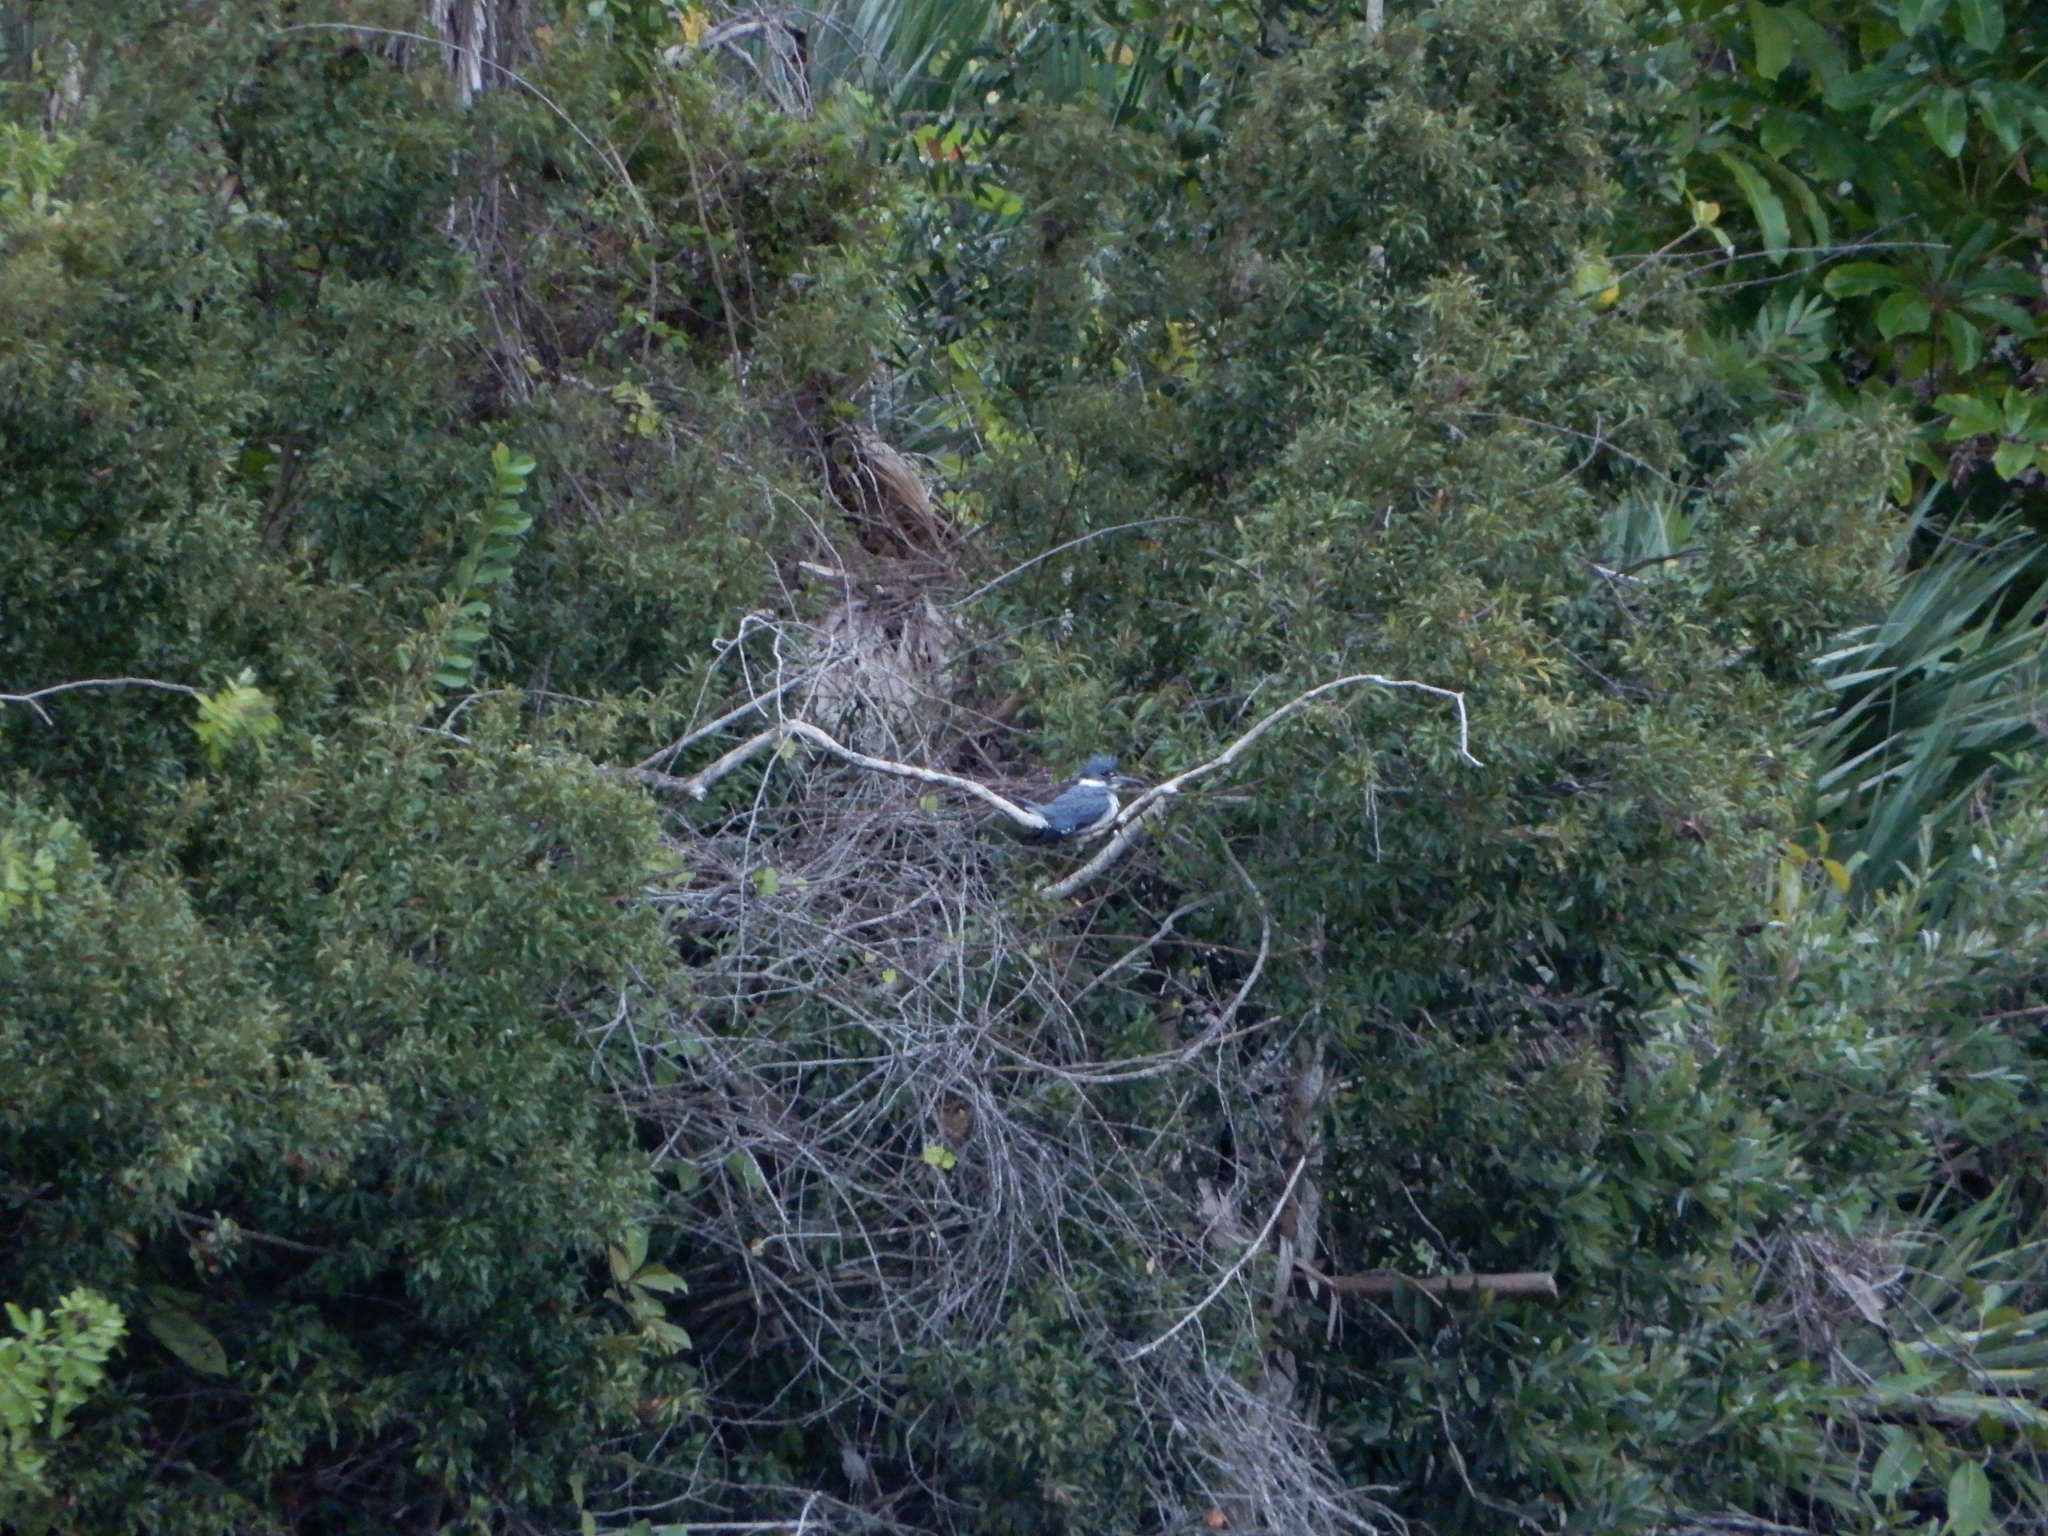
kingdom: Animalia
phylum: Chordata
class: Aves
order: Coraciiformes
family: Alcedinidae
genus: Megaceryle
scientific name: Megaceryle alcyon
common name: Belted kingfisher
